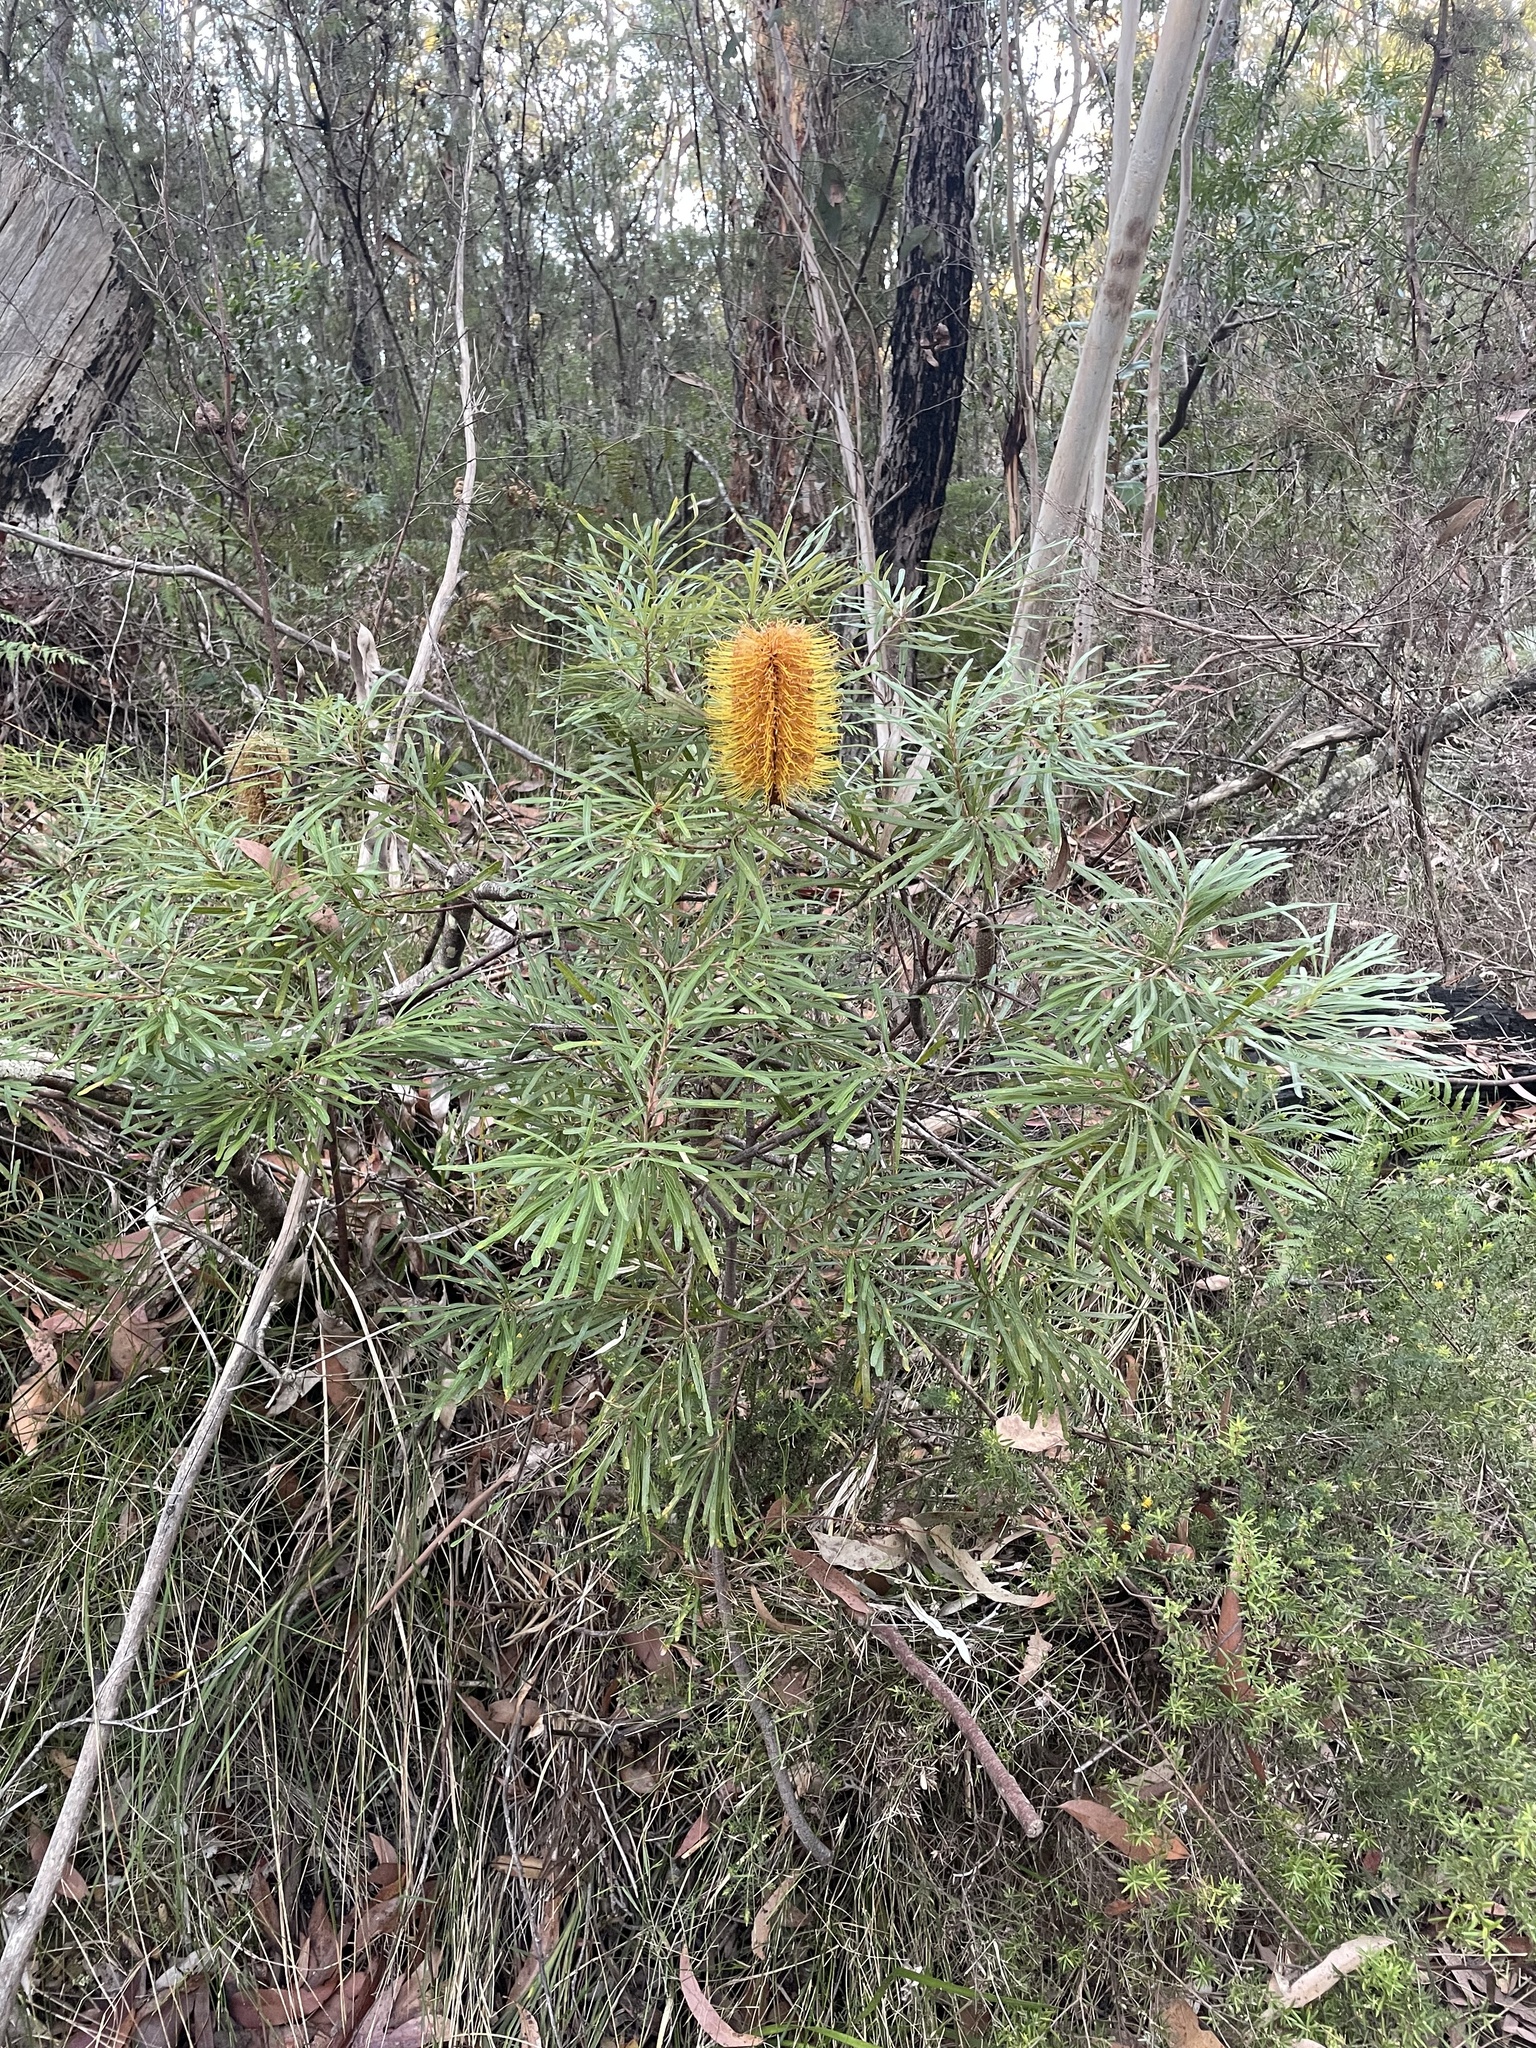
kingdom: Plantae
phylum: Tracheophyta
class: Magnoliopsida
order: Proteales
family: Proteaceae
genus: Banksia
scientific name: Banksia spinulosa
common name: Hairpin banksia
